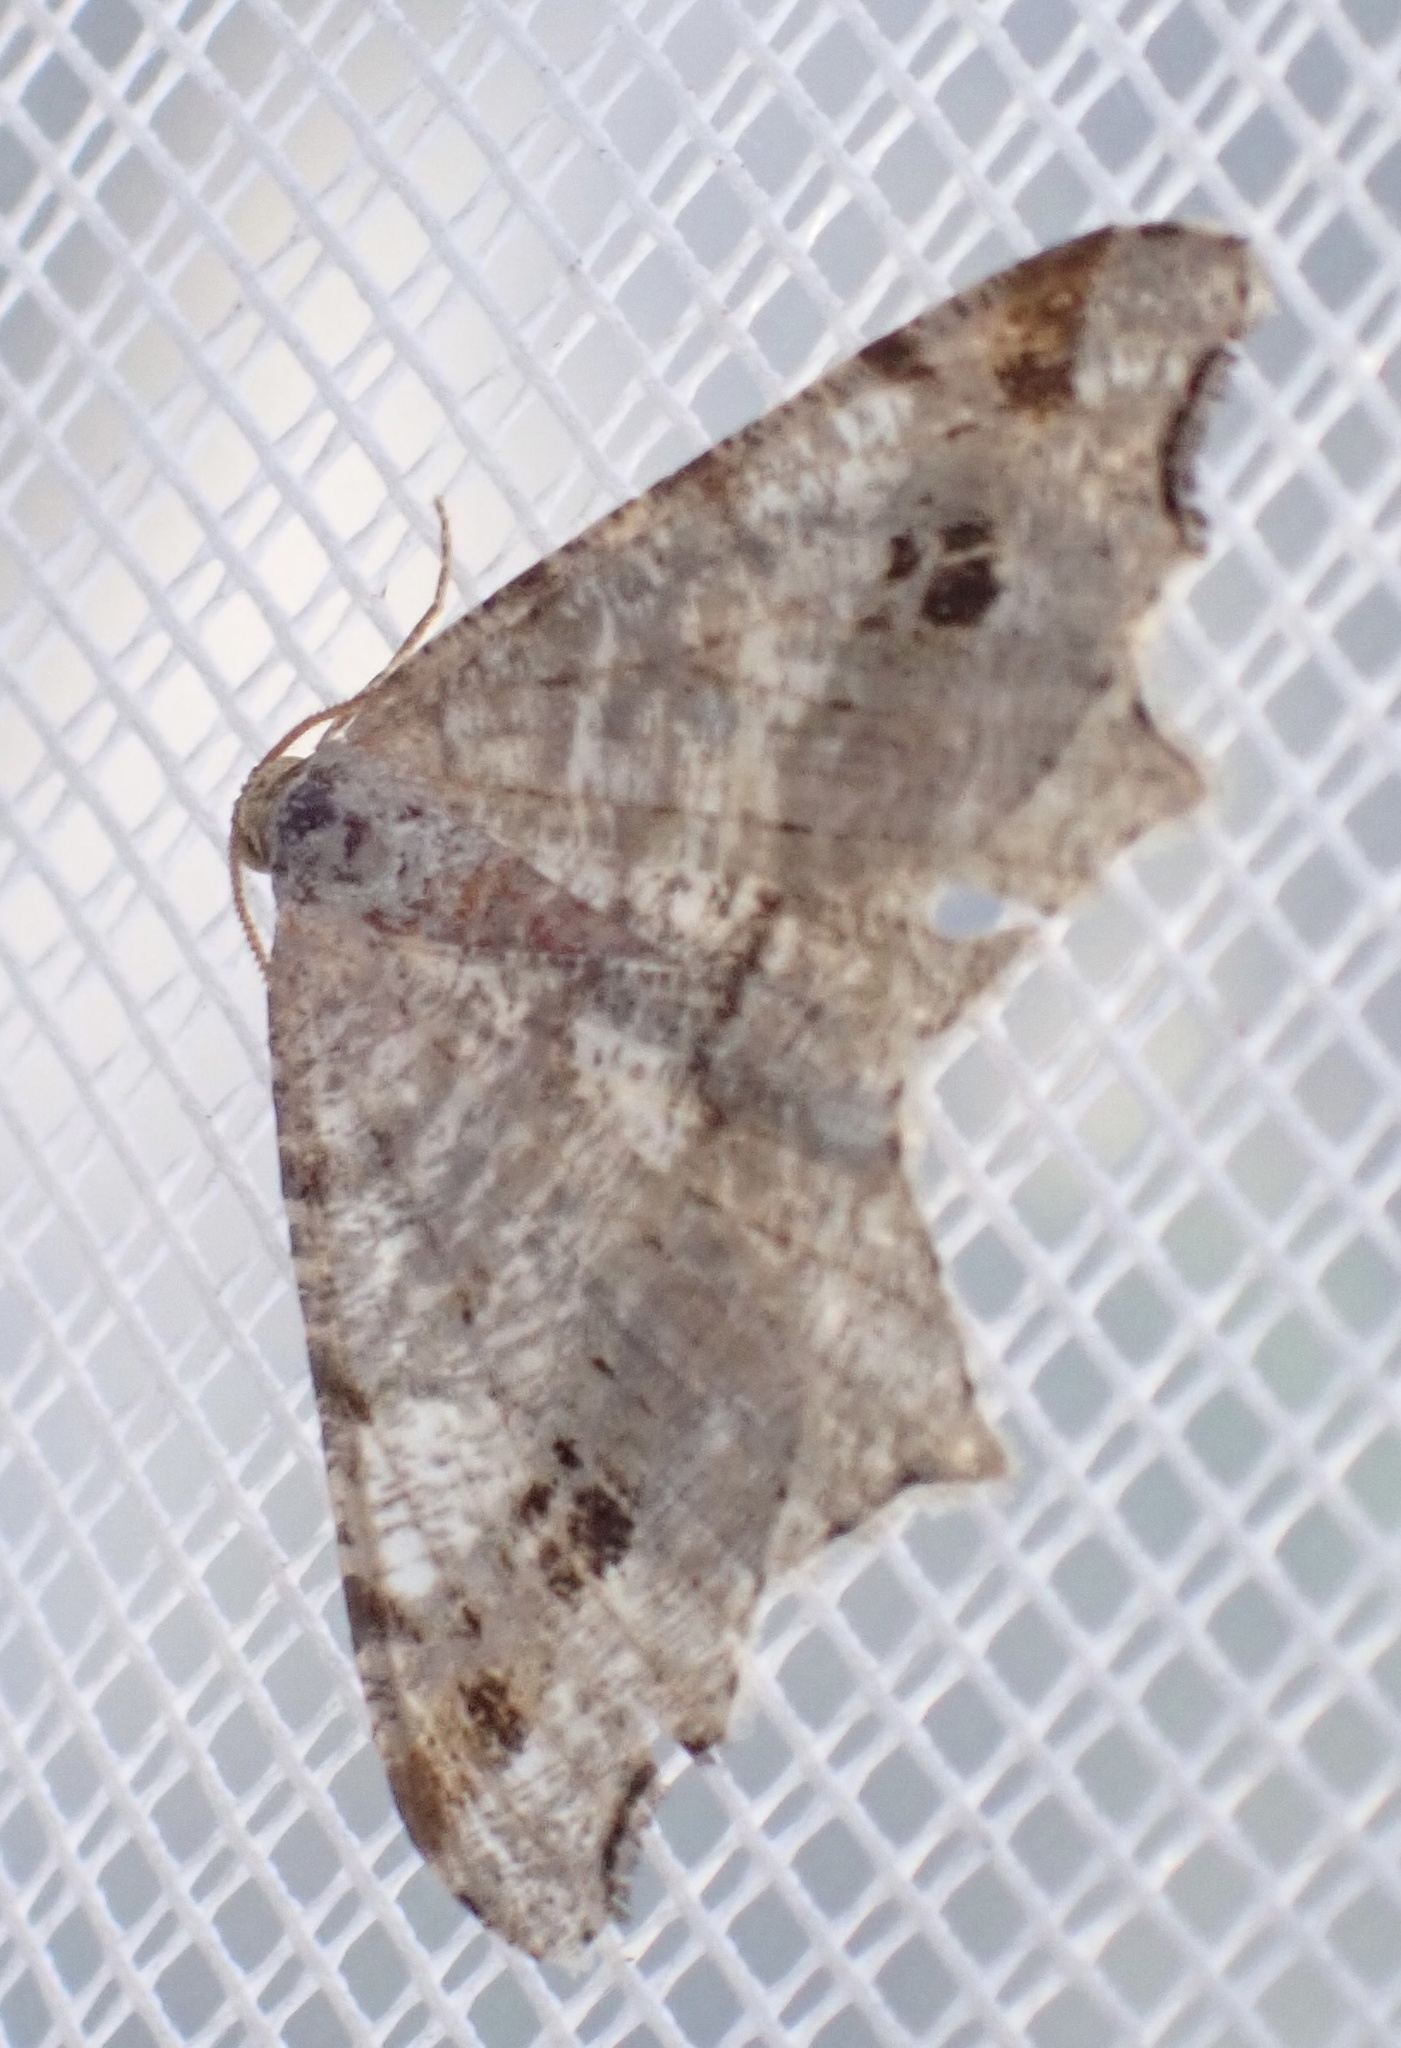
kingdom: Animalia
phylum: Arthropoda
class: Insecta
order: Lepidoptera
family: Geometridae
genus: Macaria
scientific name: Macaria alternata
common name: Sharp-angled peacock
